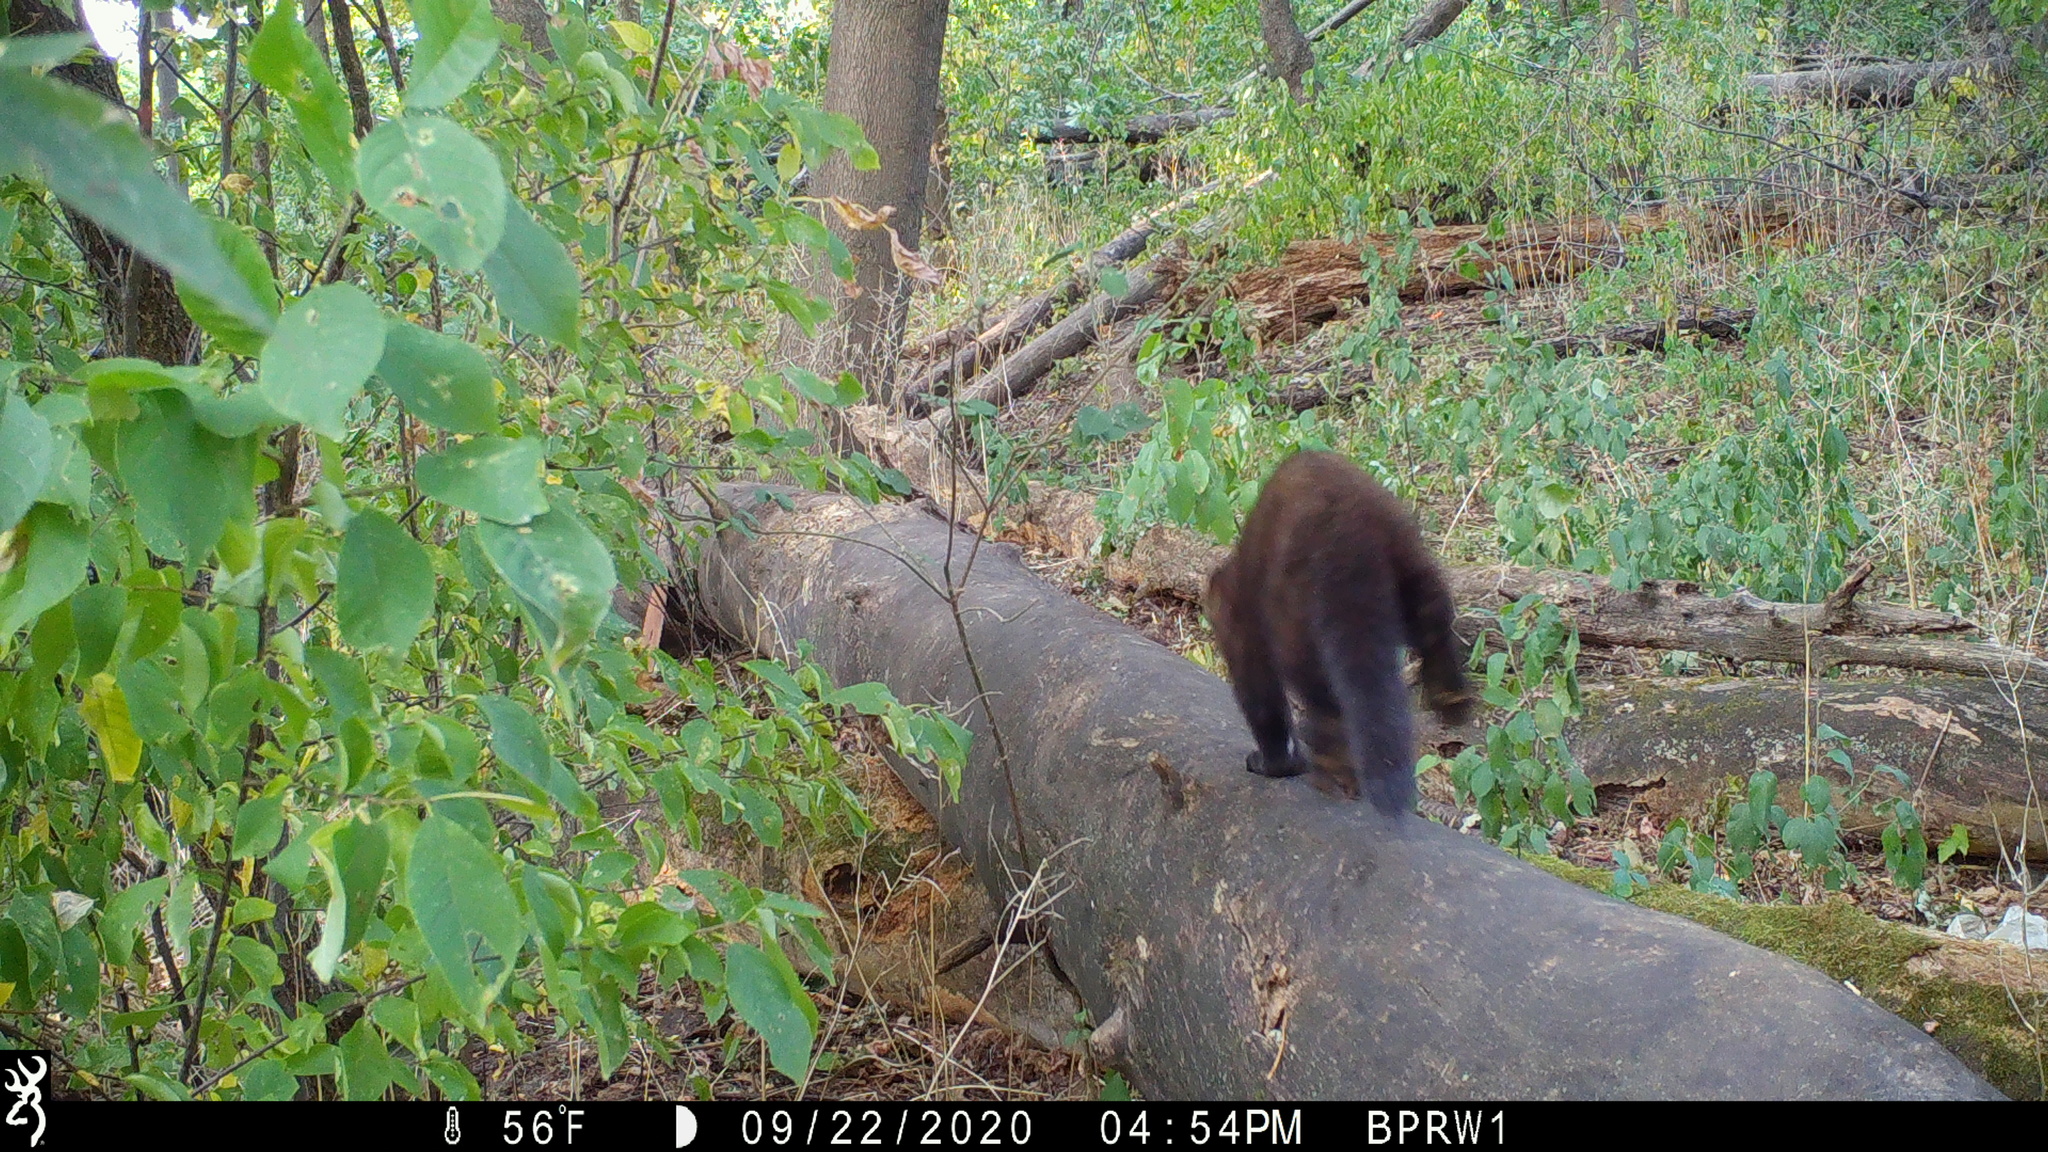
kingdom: Animalia
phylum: Chordata
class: Mammalia
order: Carnivora
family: Mustelidae
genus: Pekania
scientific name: Pekania pennanti
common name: Fisher
